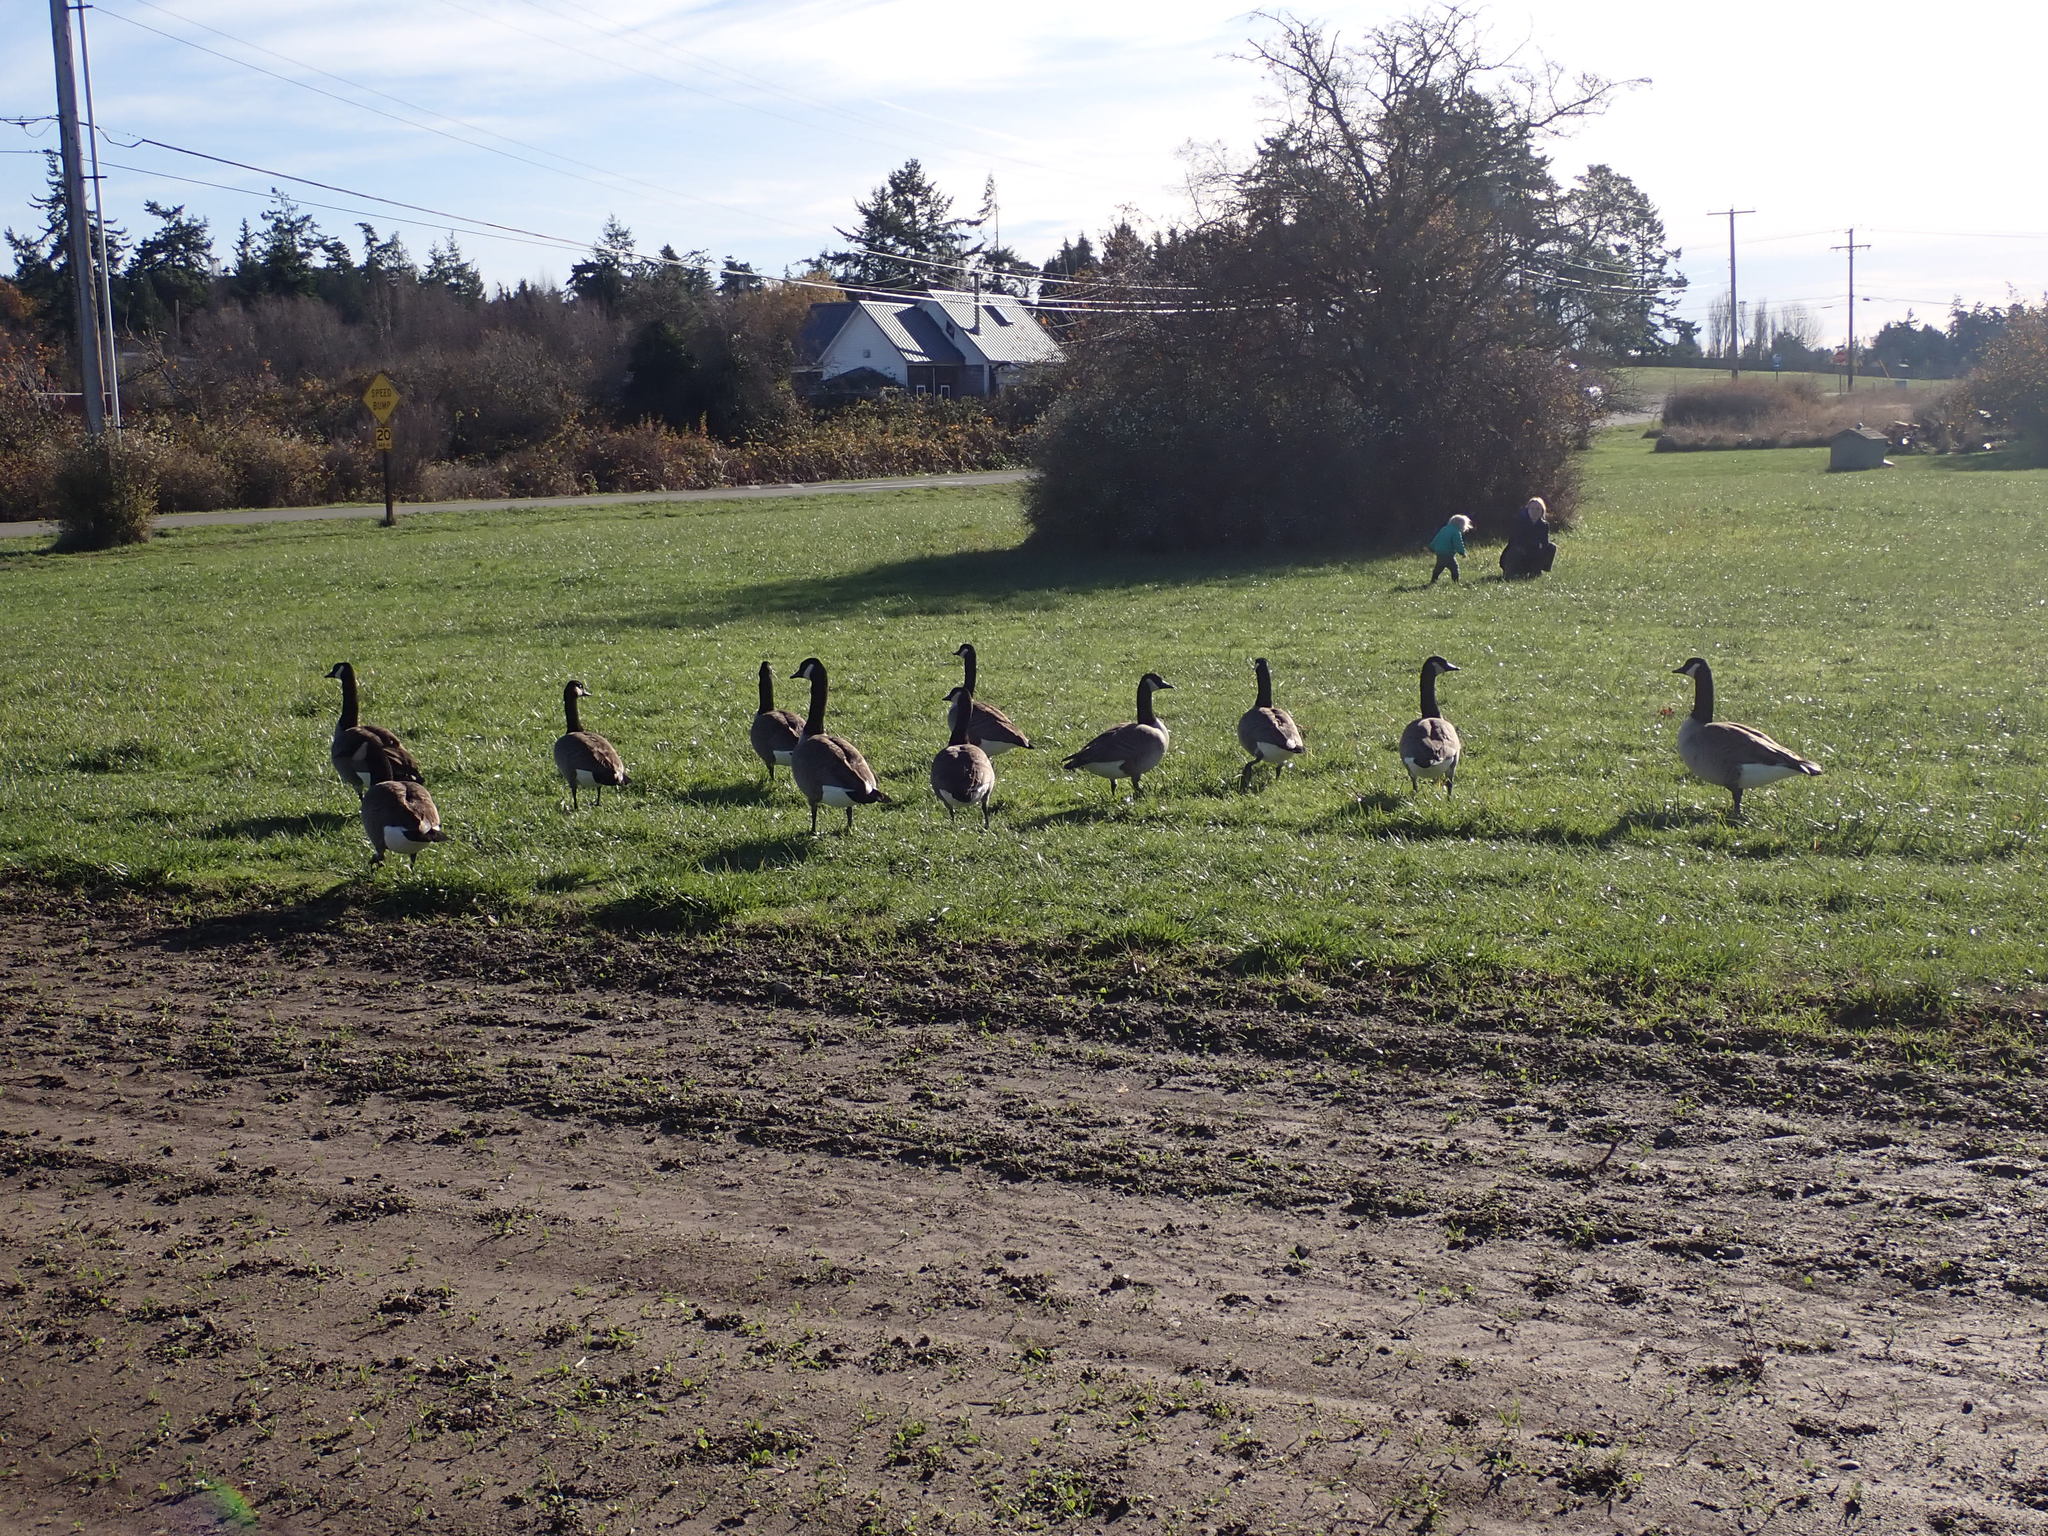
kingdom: Animalia
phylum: Chordata
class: Aves
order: Anseriformes
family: Anatidae
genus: Branta
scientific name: Branta canadensis
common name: Canada goose
